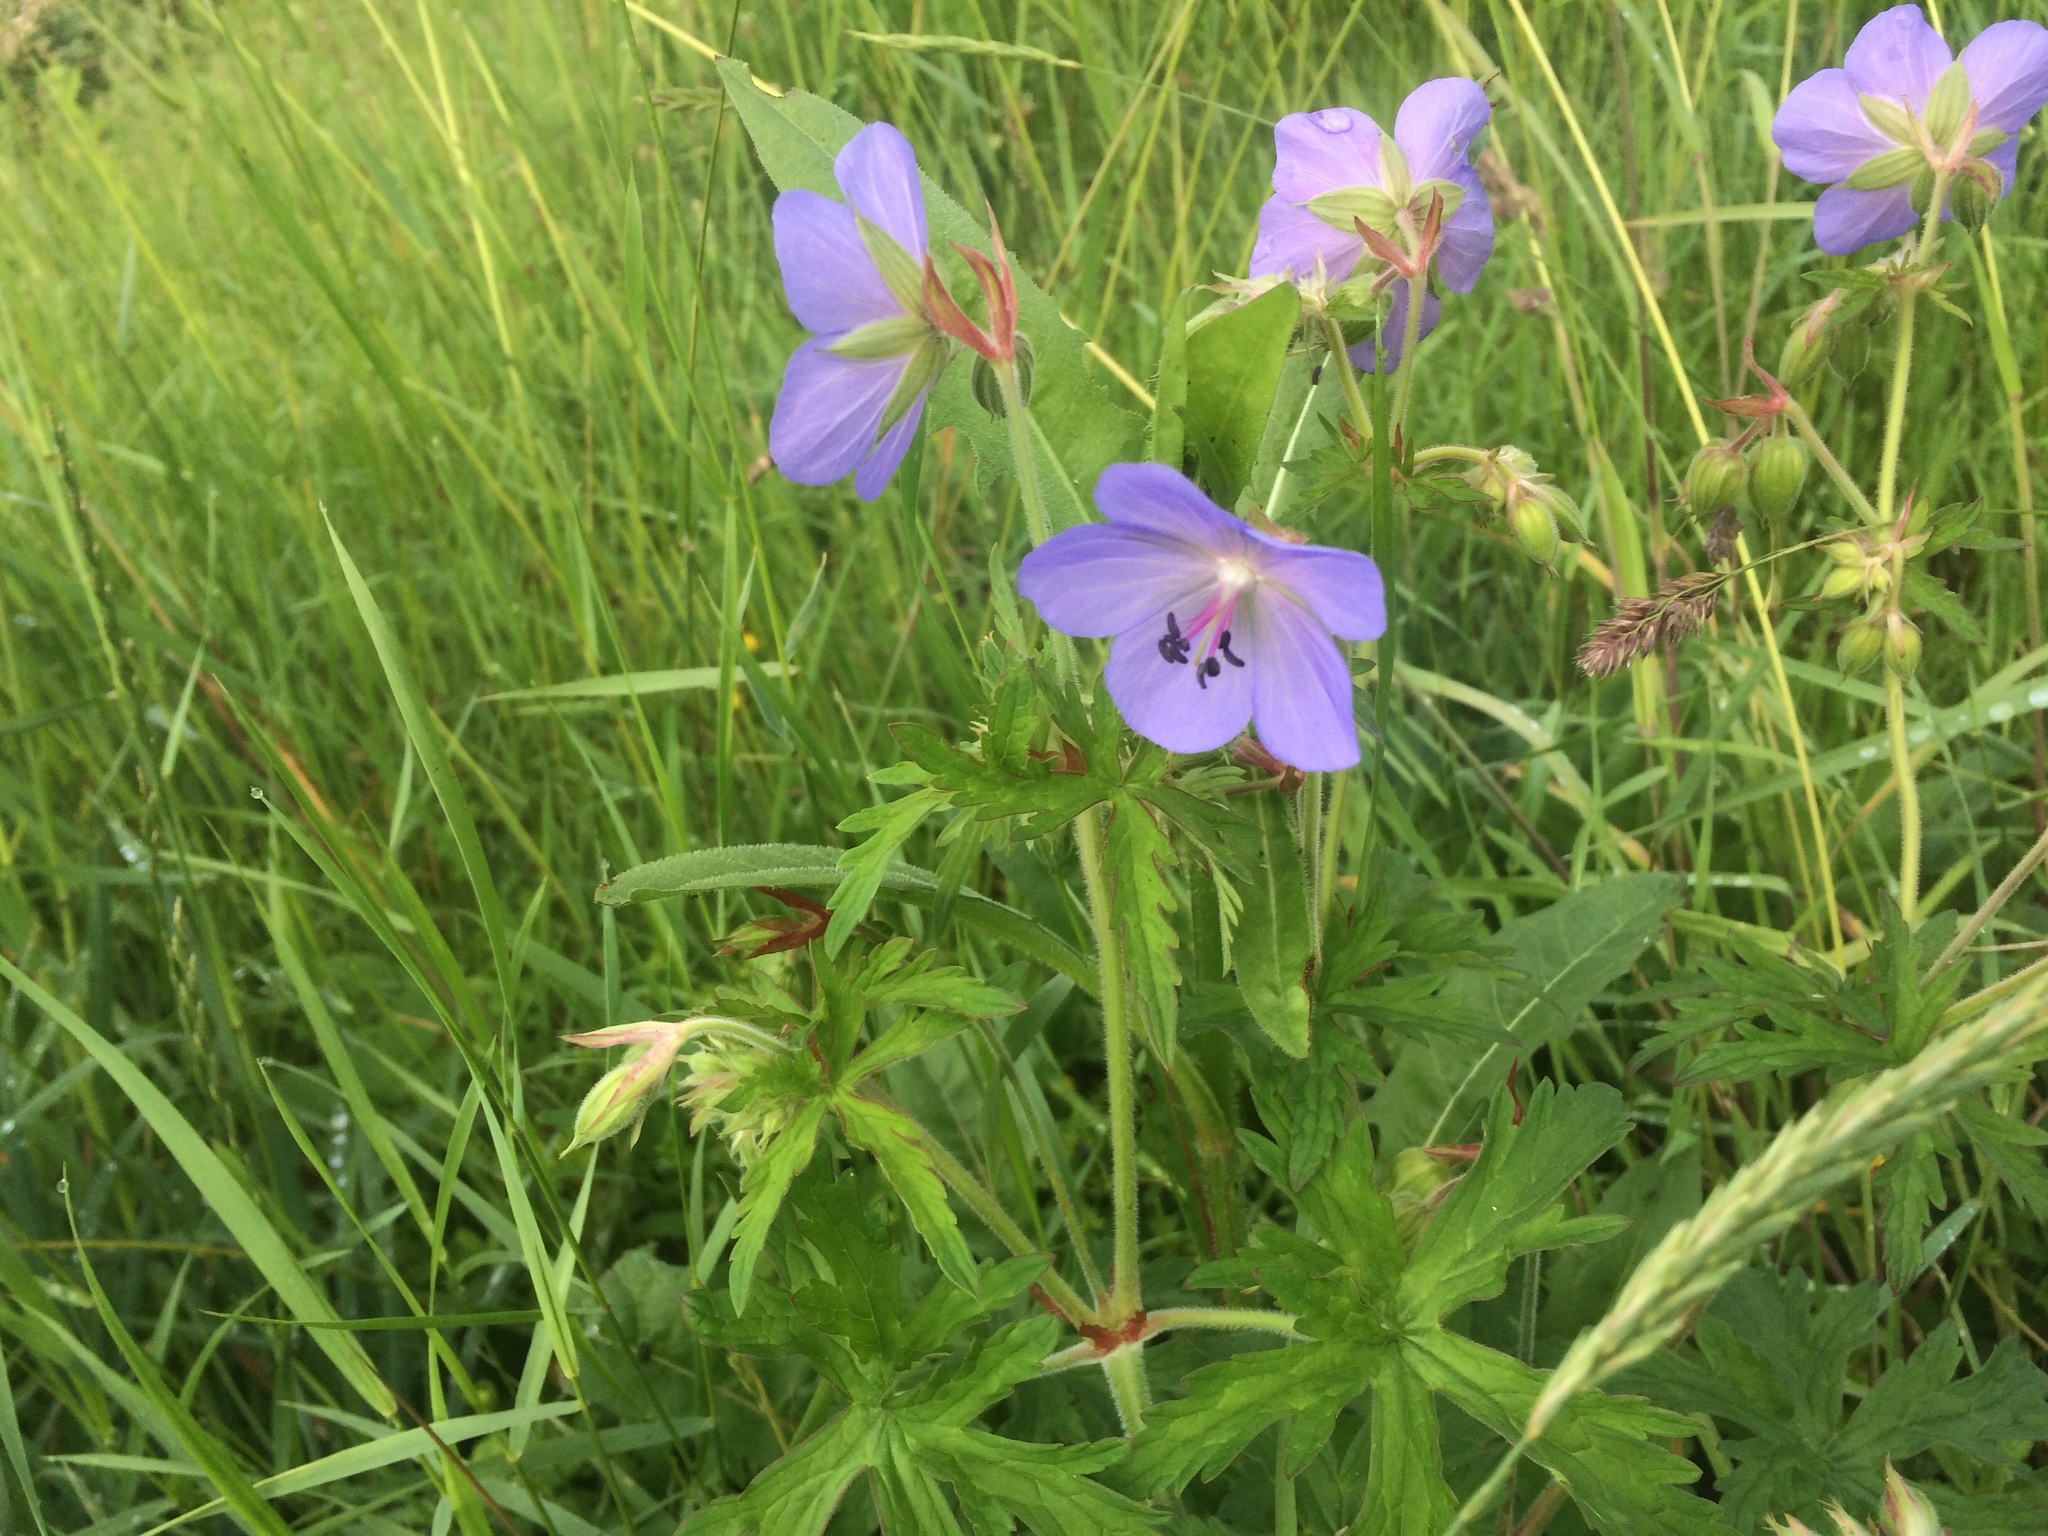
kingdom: Plantae
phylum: Tracheophyta
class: Magnoliopsida
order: Geraniales
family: Geraniaceae
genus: Geranium
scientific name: Geranium pratense
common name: Meadow crane's-bill
